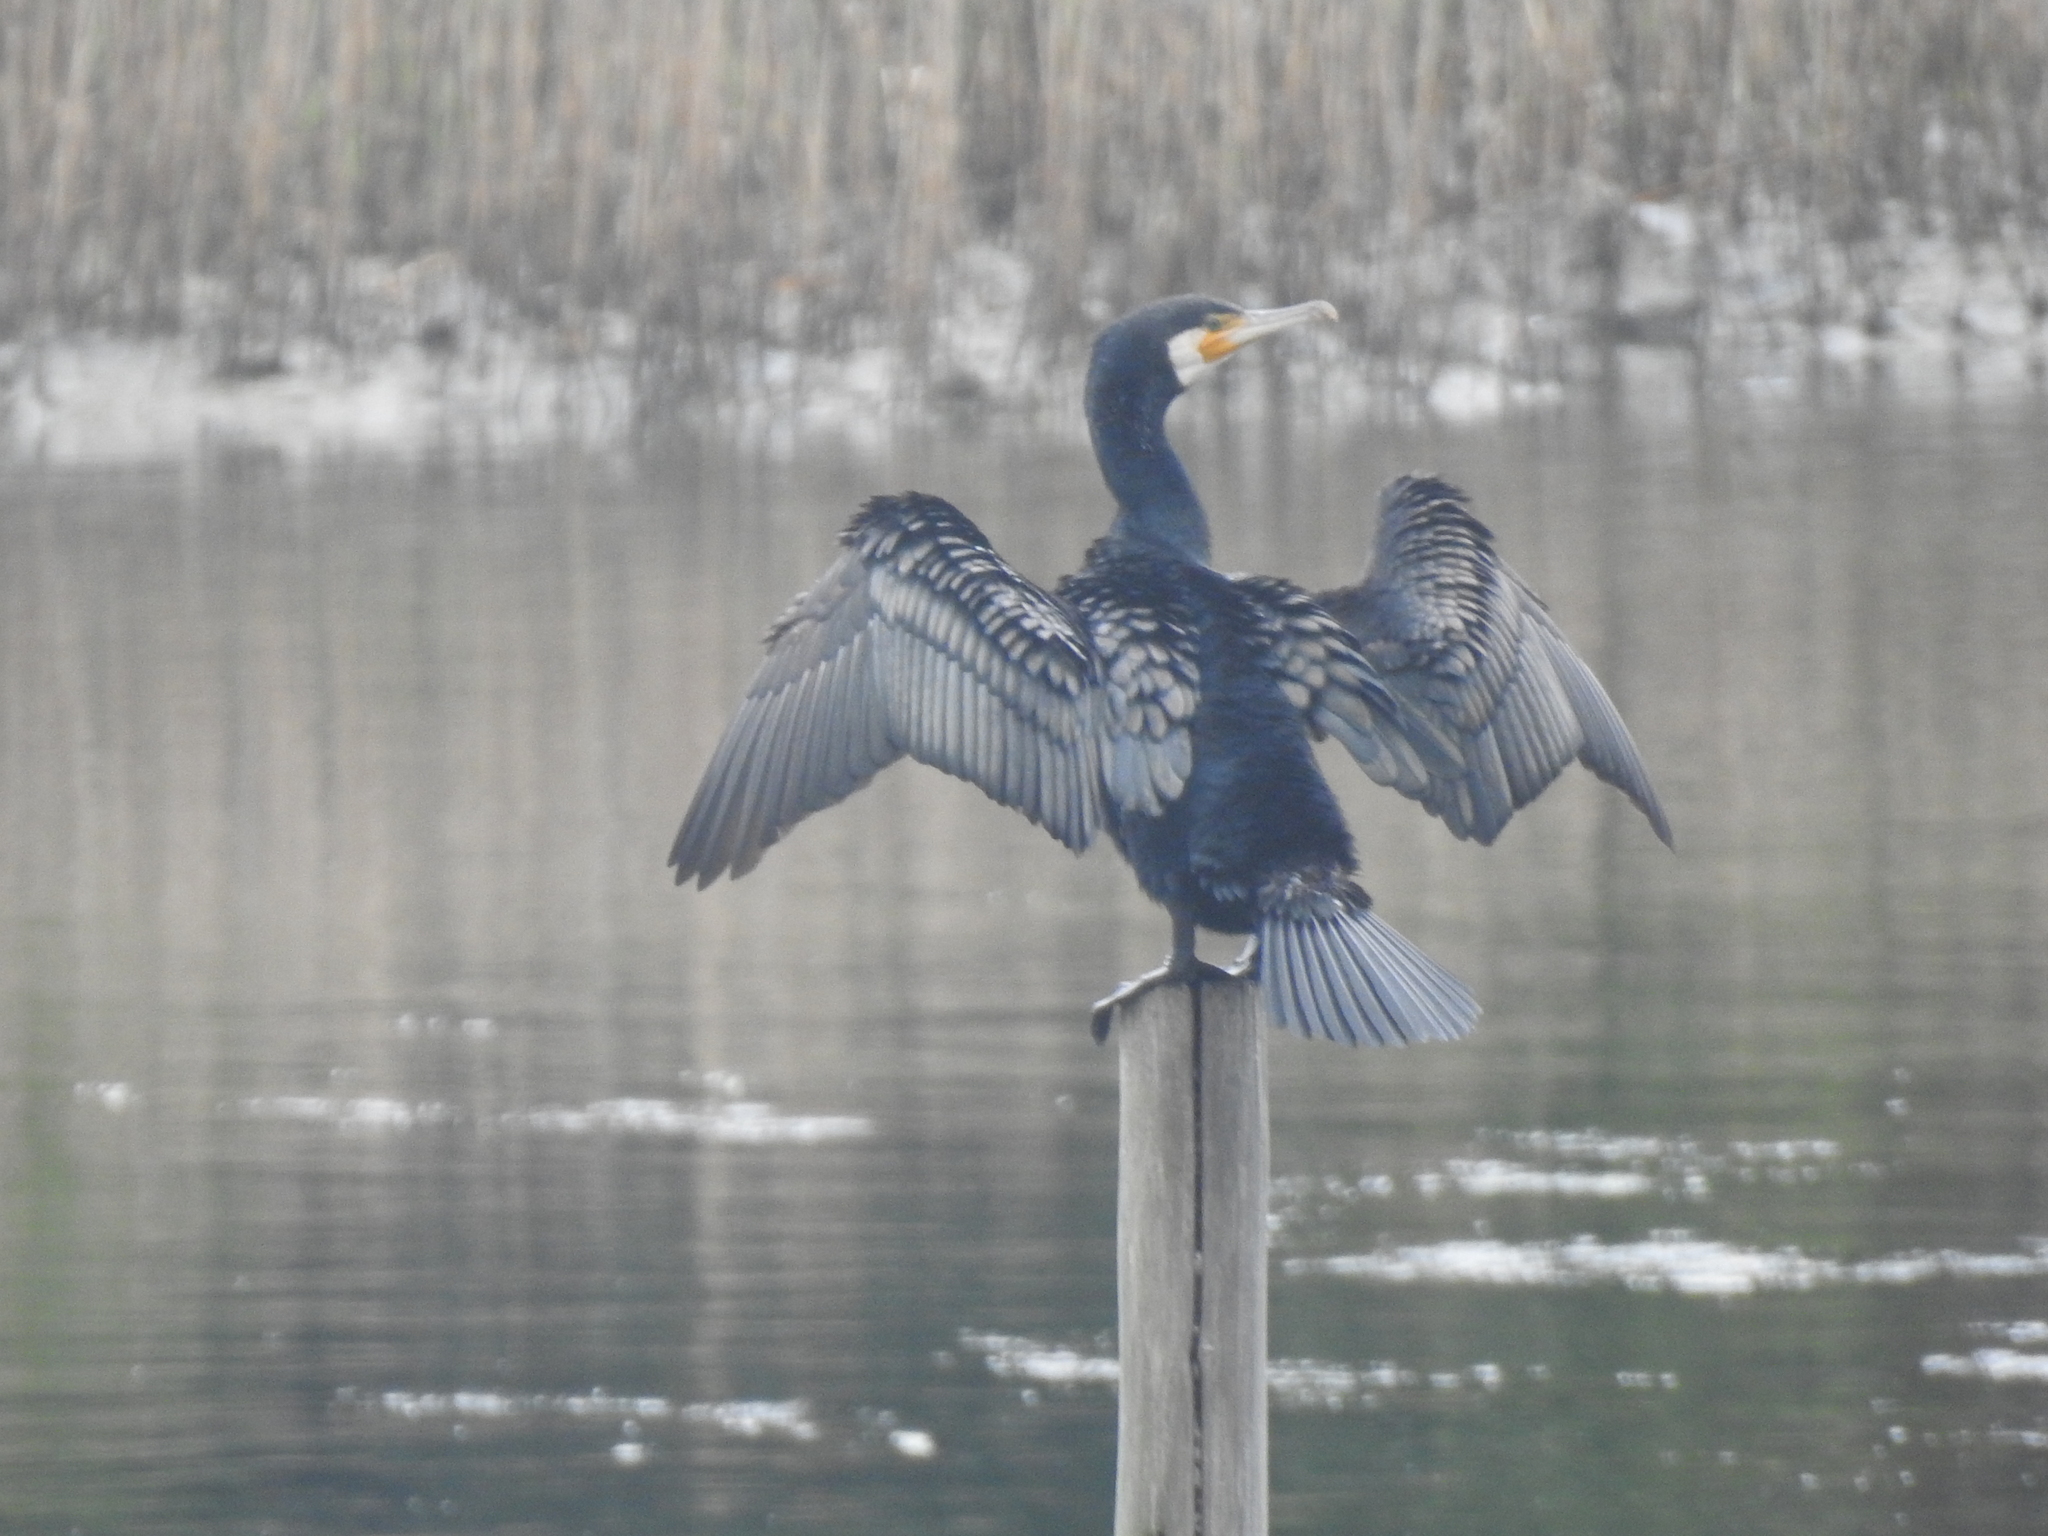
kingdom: Animalia
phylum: Chordata
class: Aves
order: Suliformes
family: Phalacrocoracidae
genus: Phalacrocorax
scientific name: Phalacrocorax carbo
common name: Great cormorant
